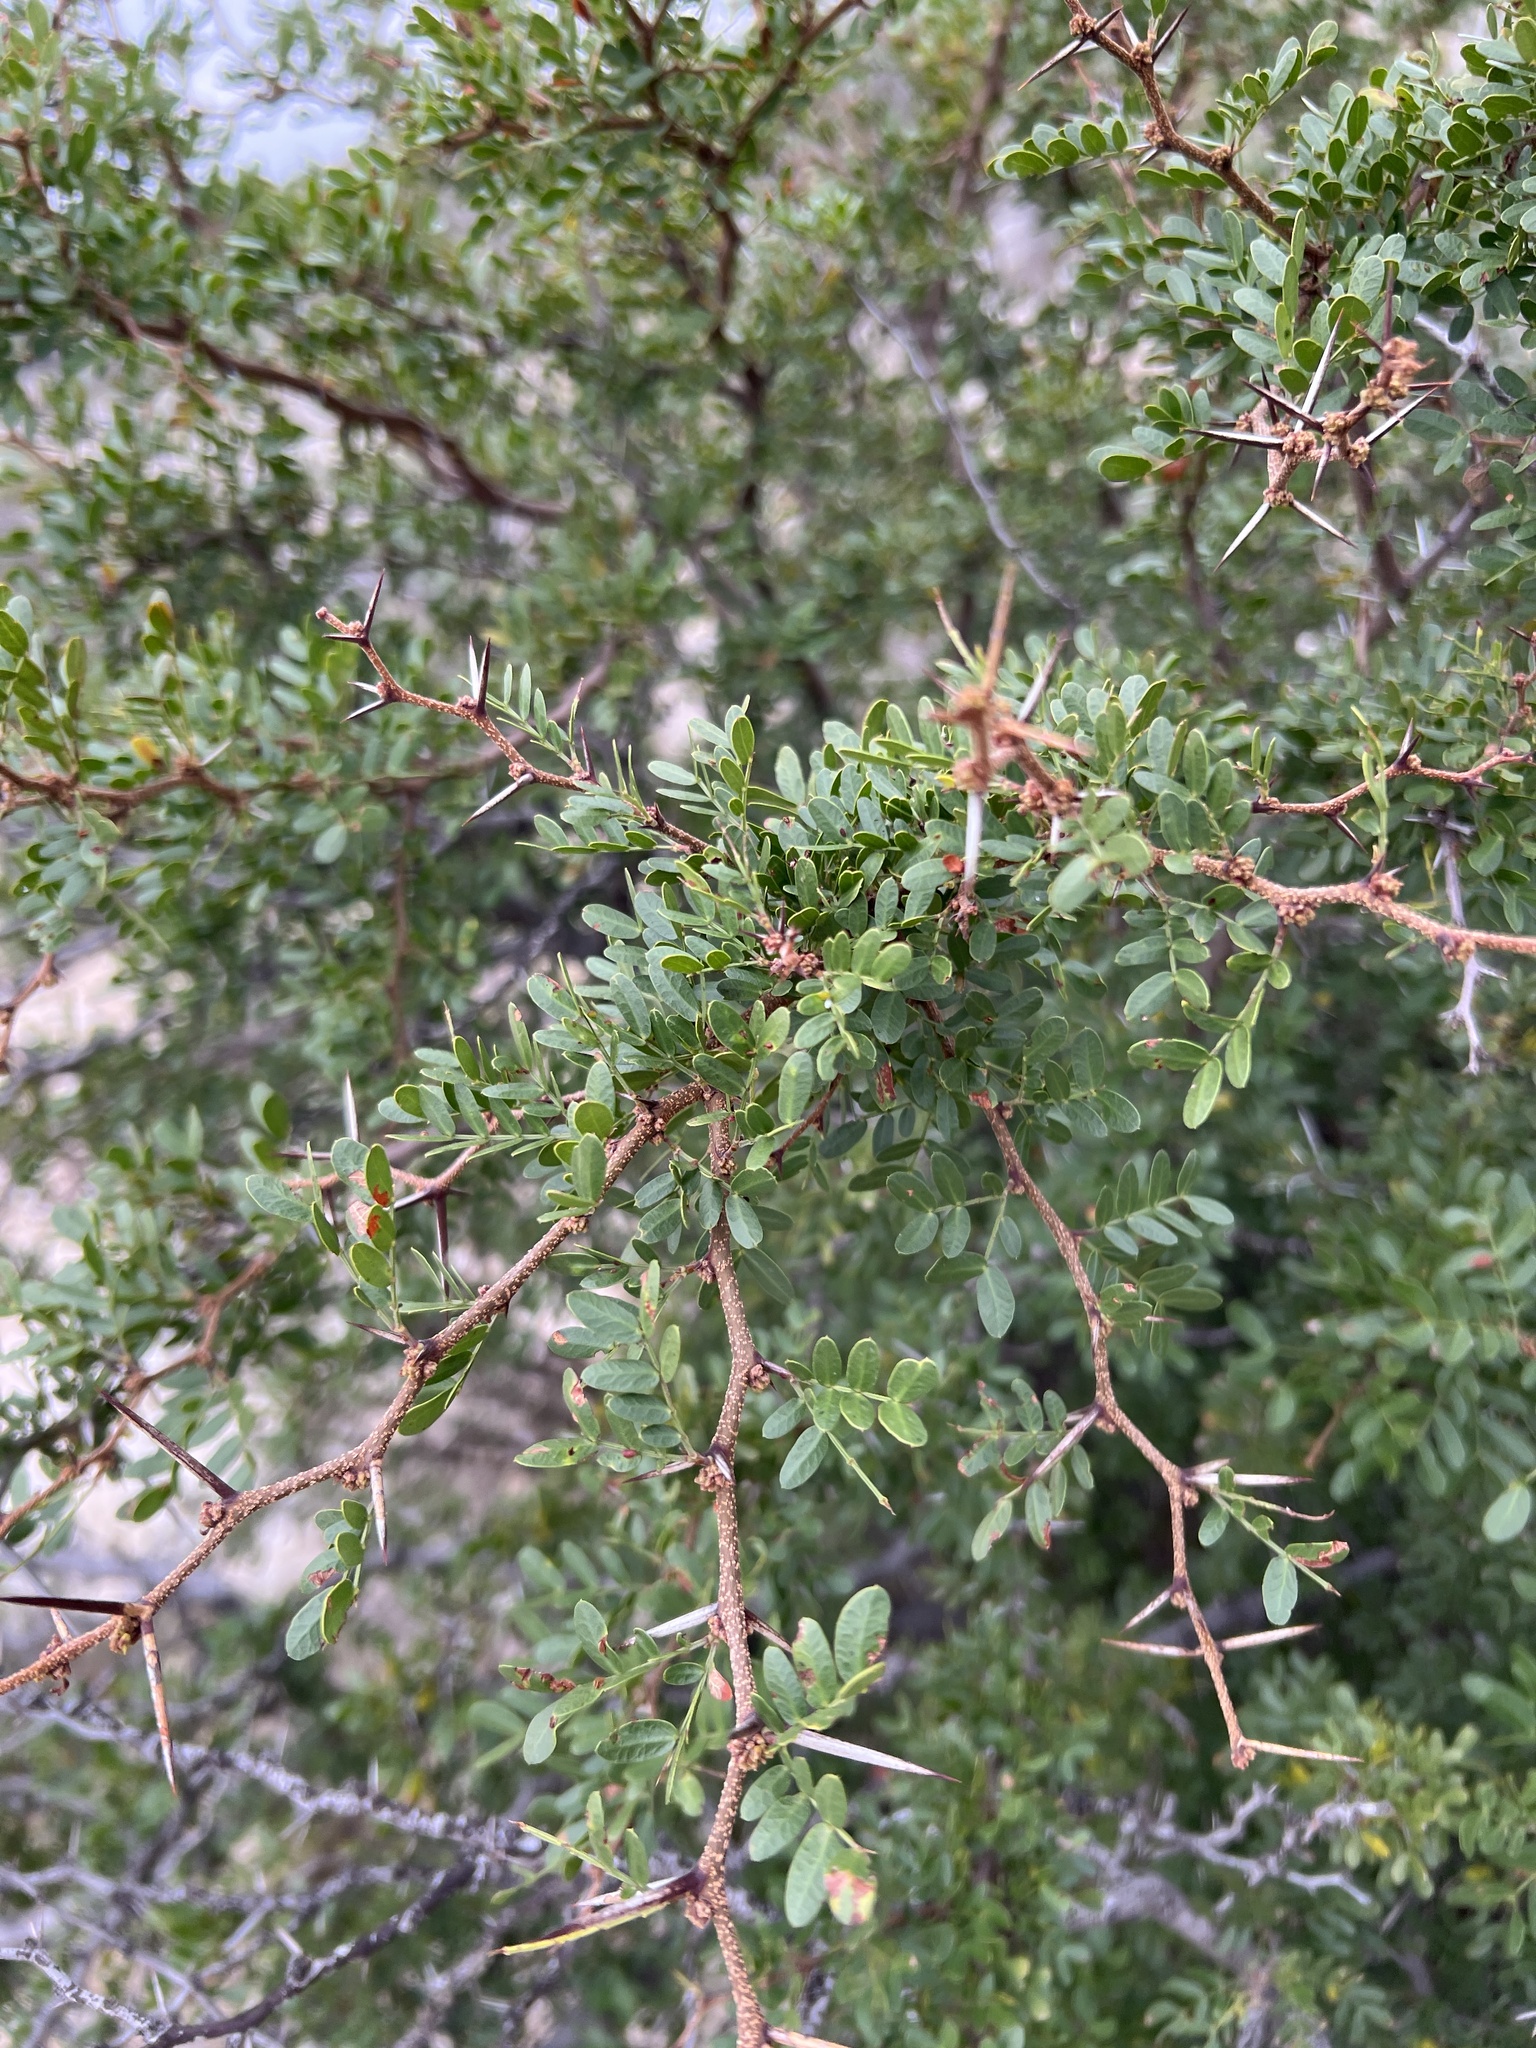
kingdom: Plantae
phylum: Tracheophyta
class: Magnoliopsida
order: Fabales
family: Fabaceae
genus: Vachellia
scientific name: Vachellia rigidula
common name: Blackbrush
